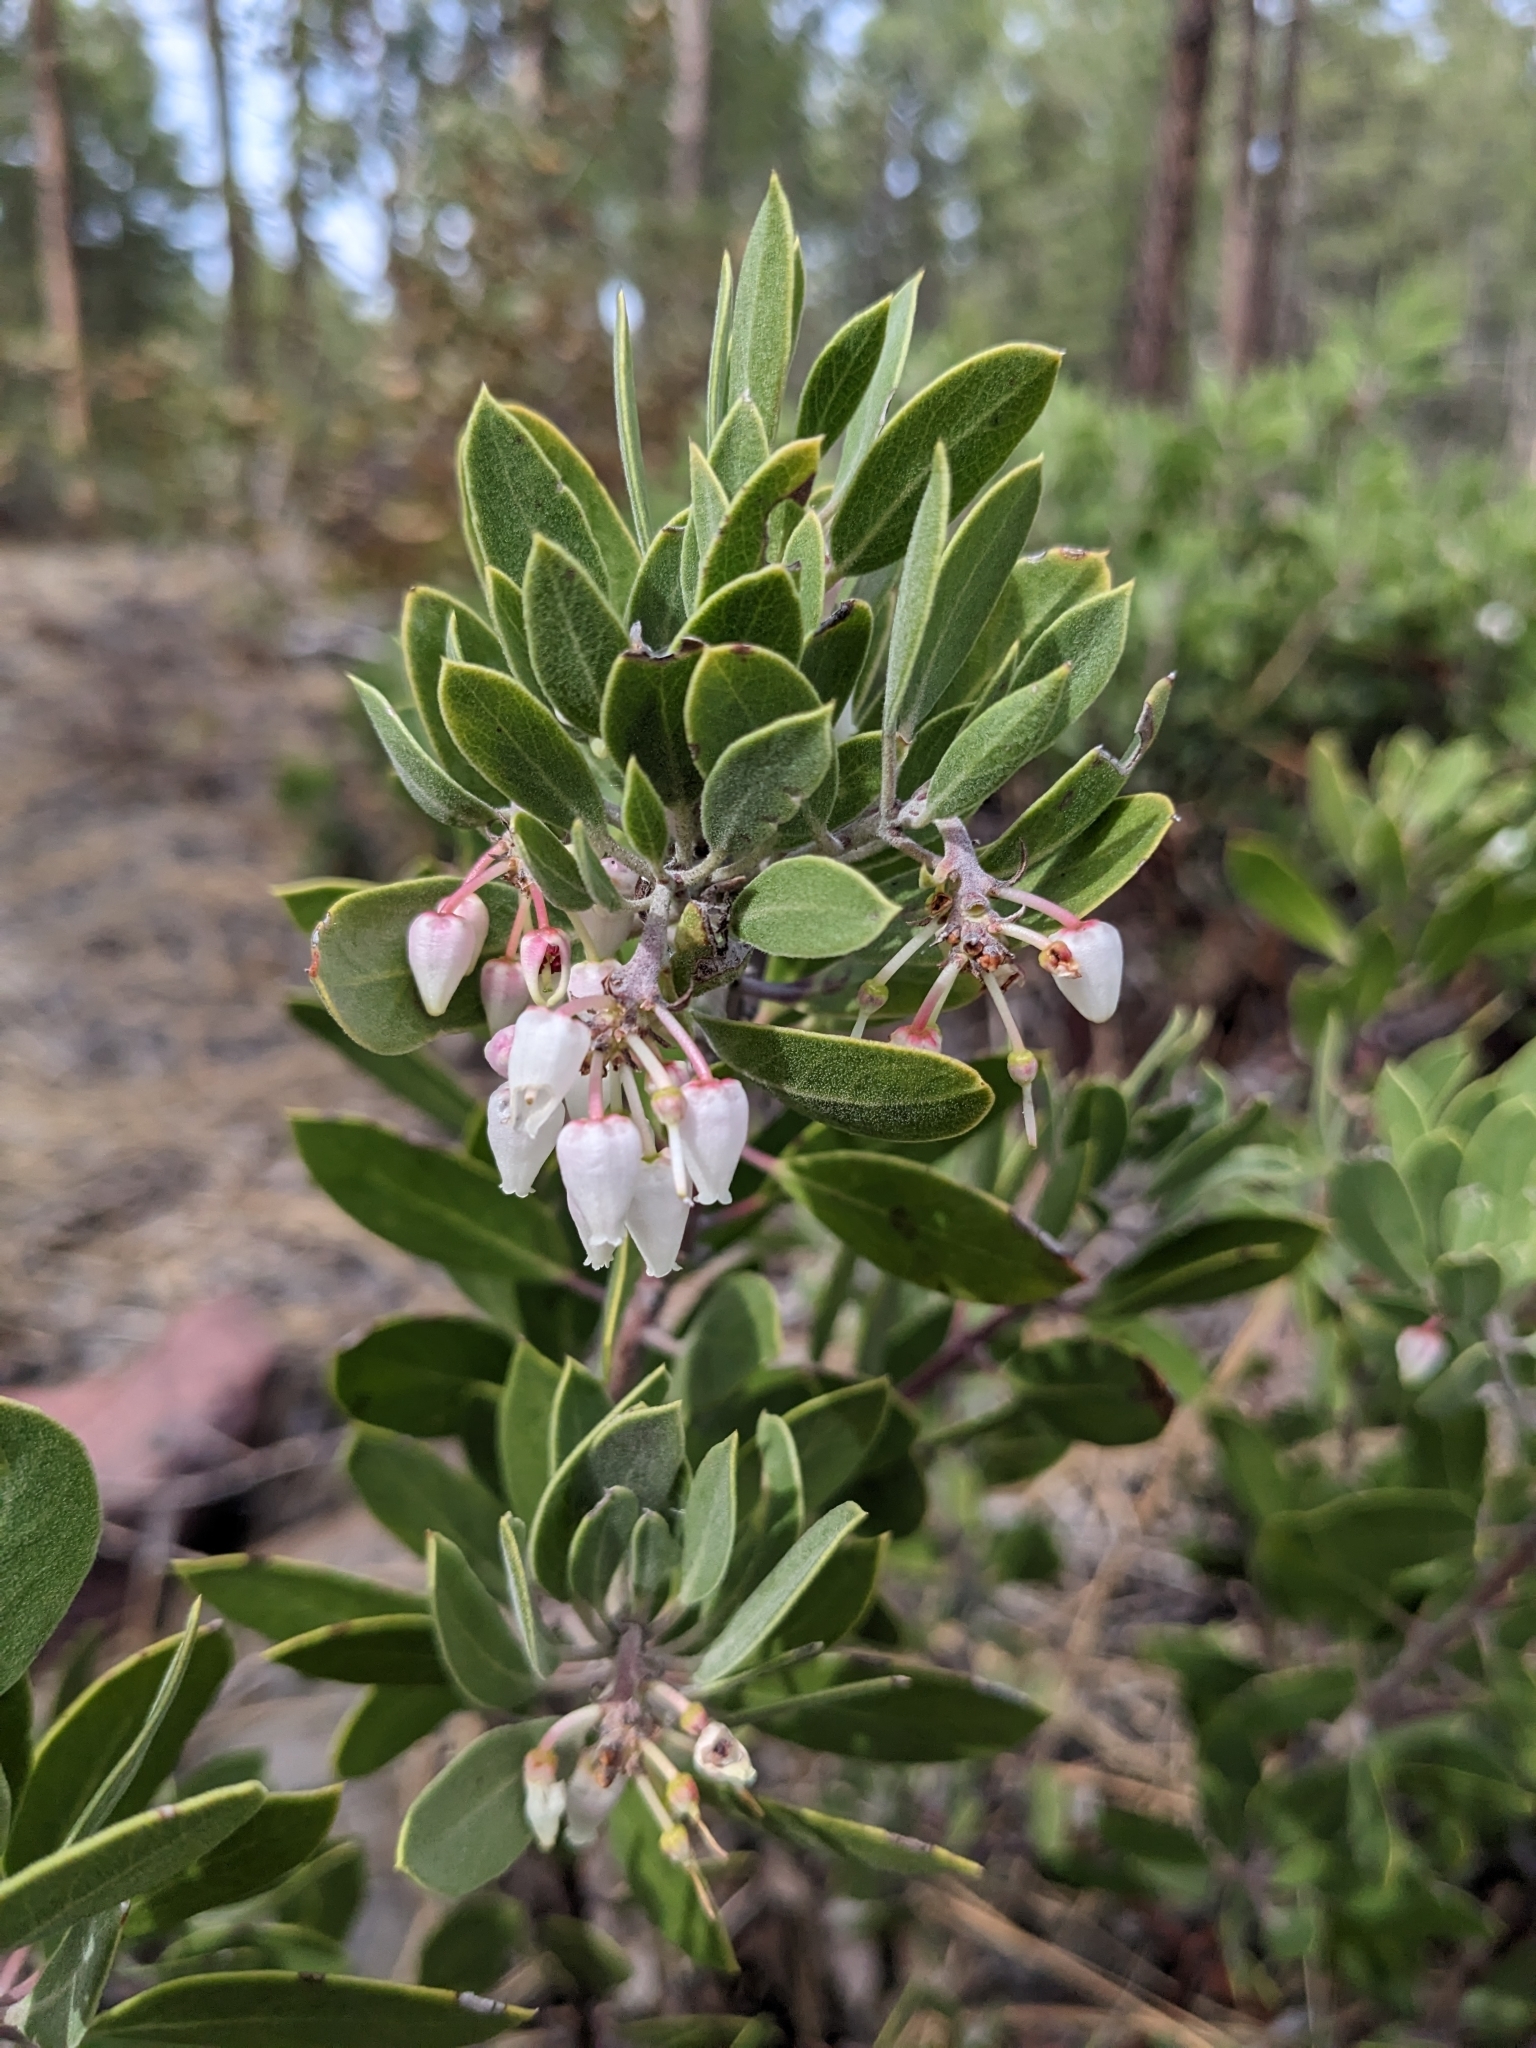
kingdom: Plantae
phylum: Tracheophyta
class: Magnoliopsida
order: Ericales
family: Ericaceae
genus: Arctostaphylos
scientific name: Arctostaphylos pungens
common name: Mexican manzanita
